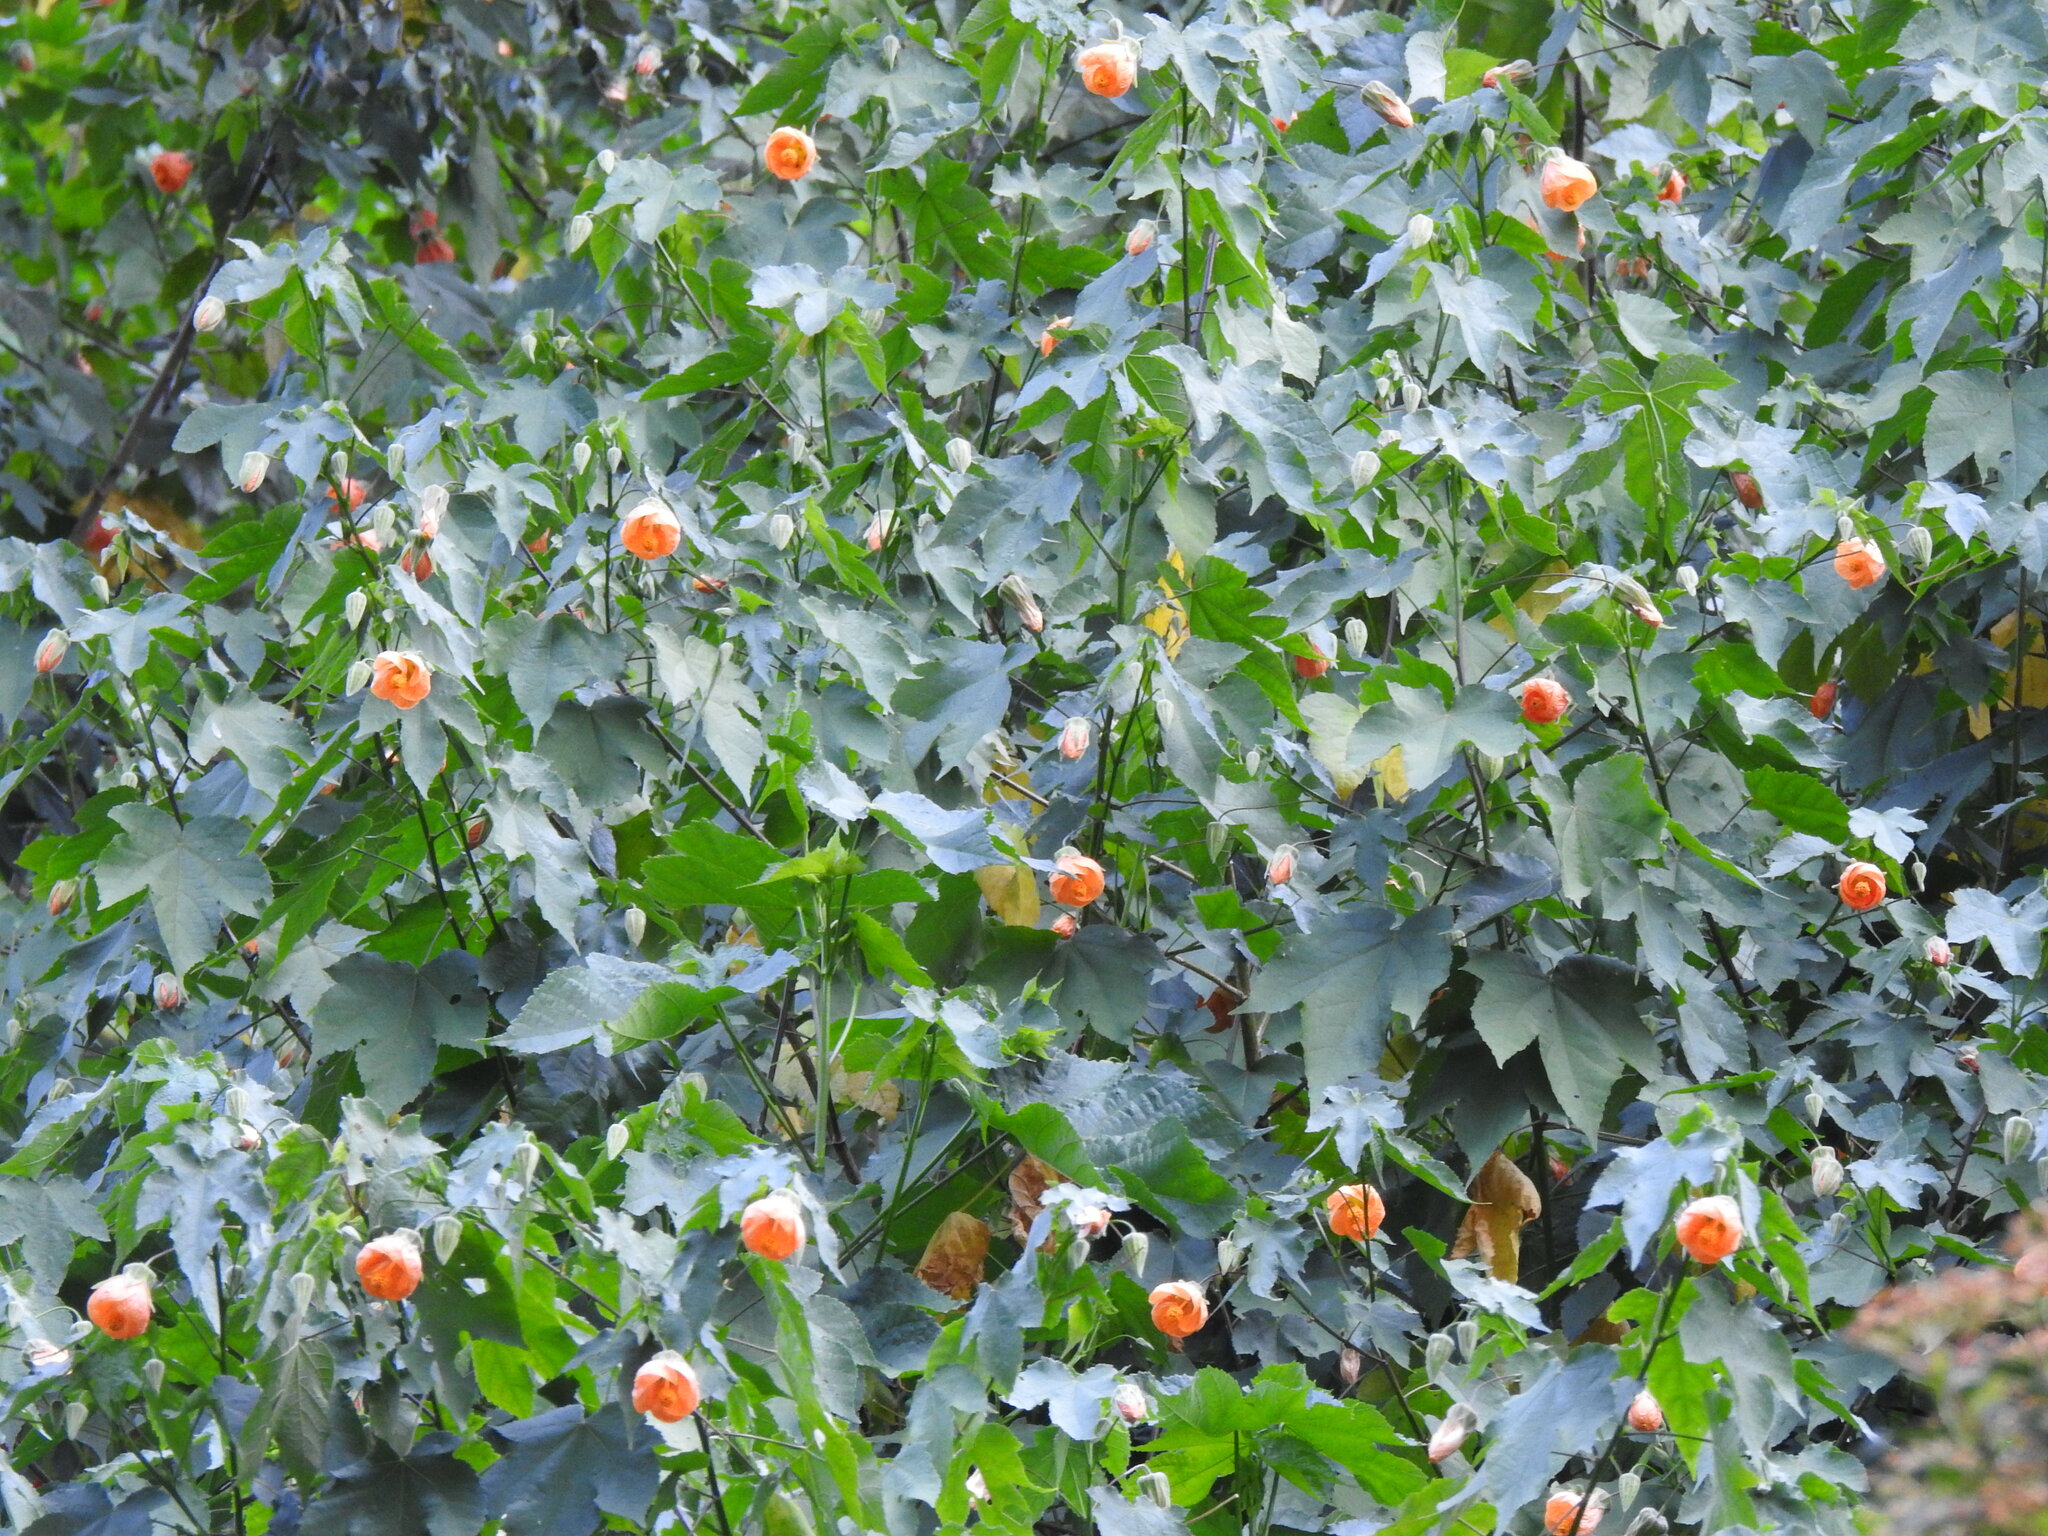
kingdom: Plantae
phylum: Tracheophyta
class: Magnoliopsida
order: Malvales
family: Malvaceae
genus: Callianthe
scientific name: Callianthe picta
